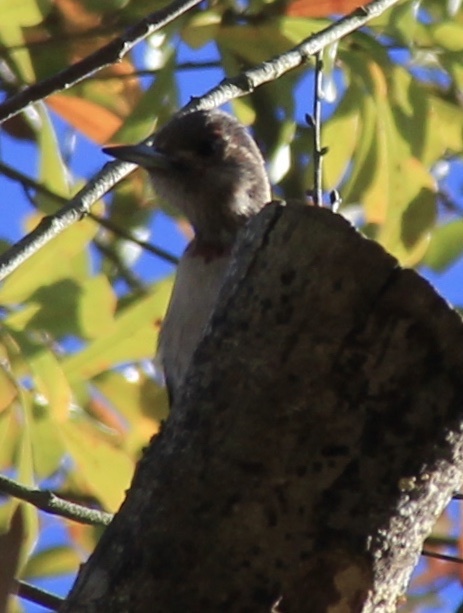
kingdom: Animalia
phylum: Chordata
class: Aves
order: Piciformes
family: Picidae
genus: Melanerpes
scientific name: Melanerpes erythrocephalus
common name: Red-headed woodpecker
